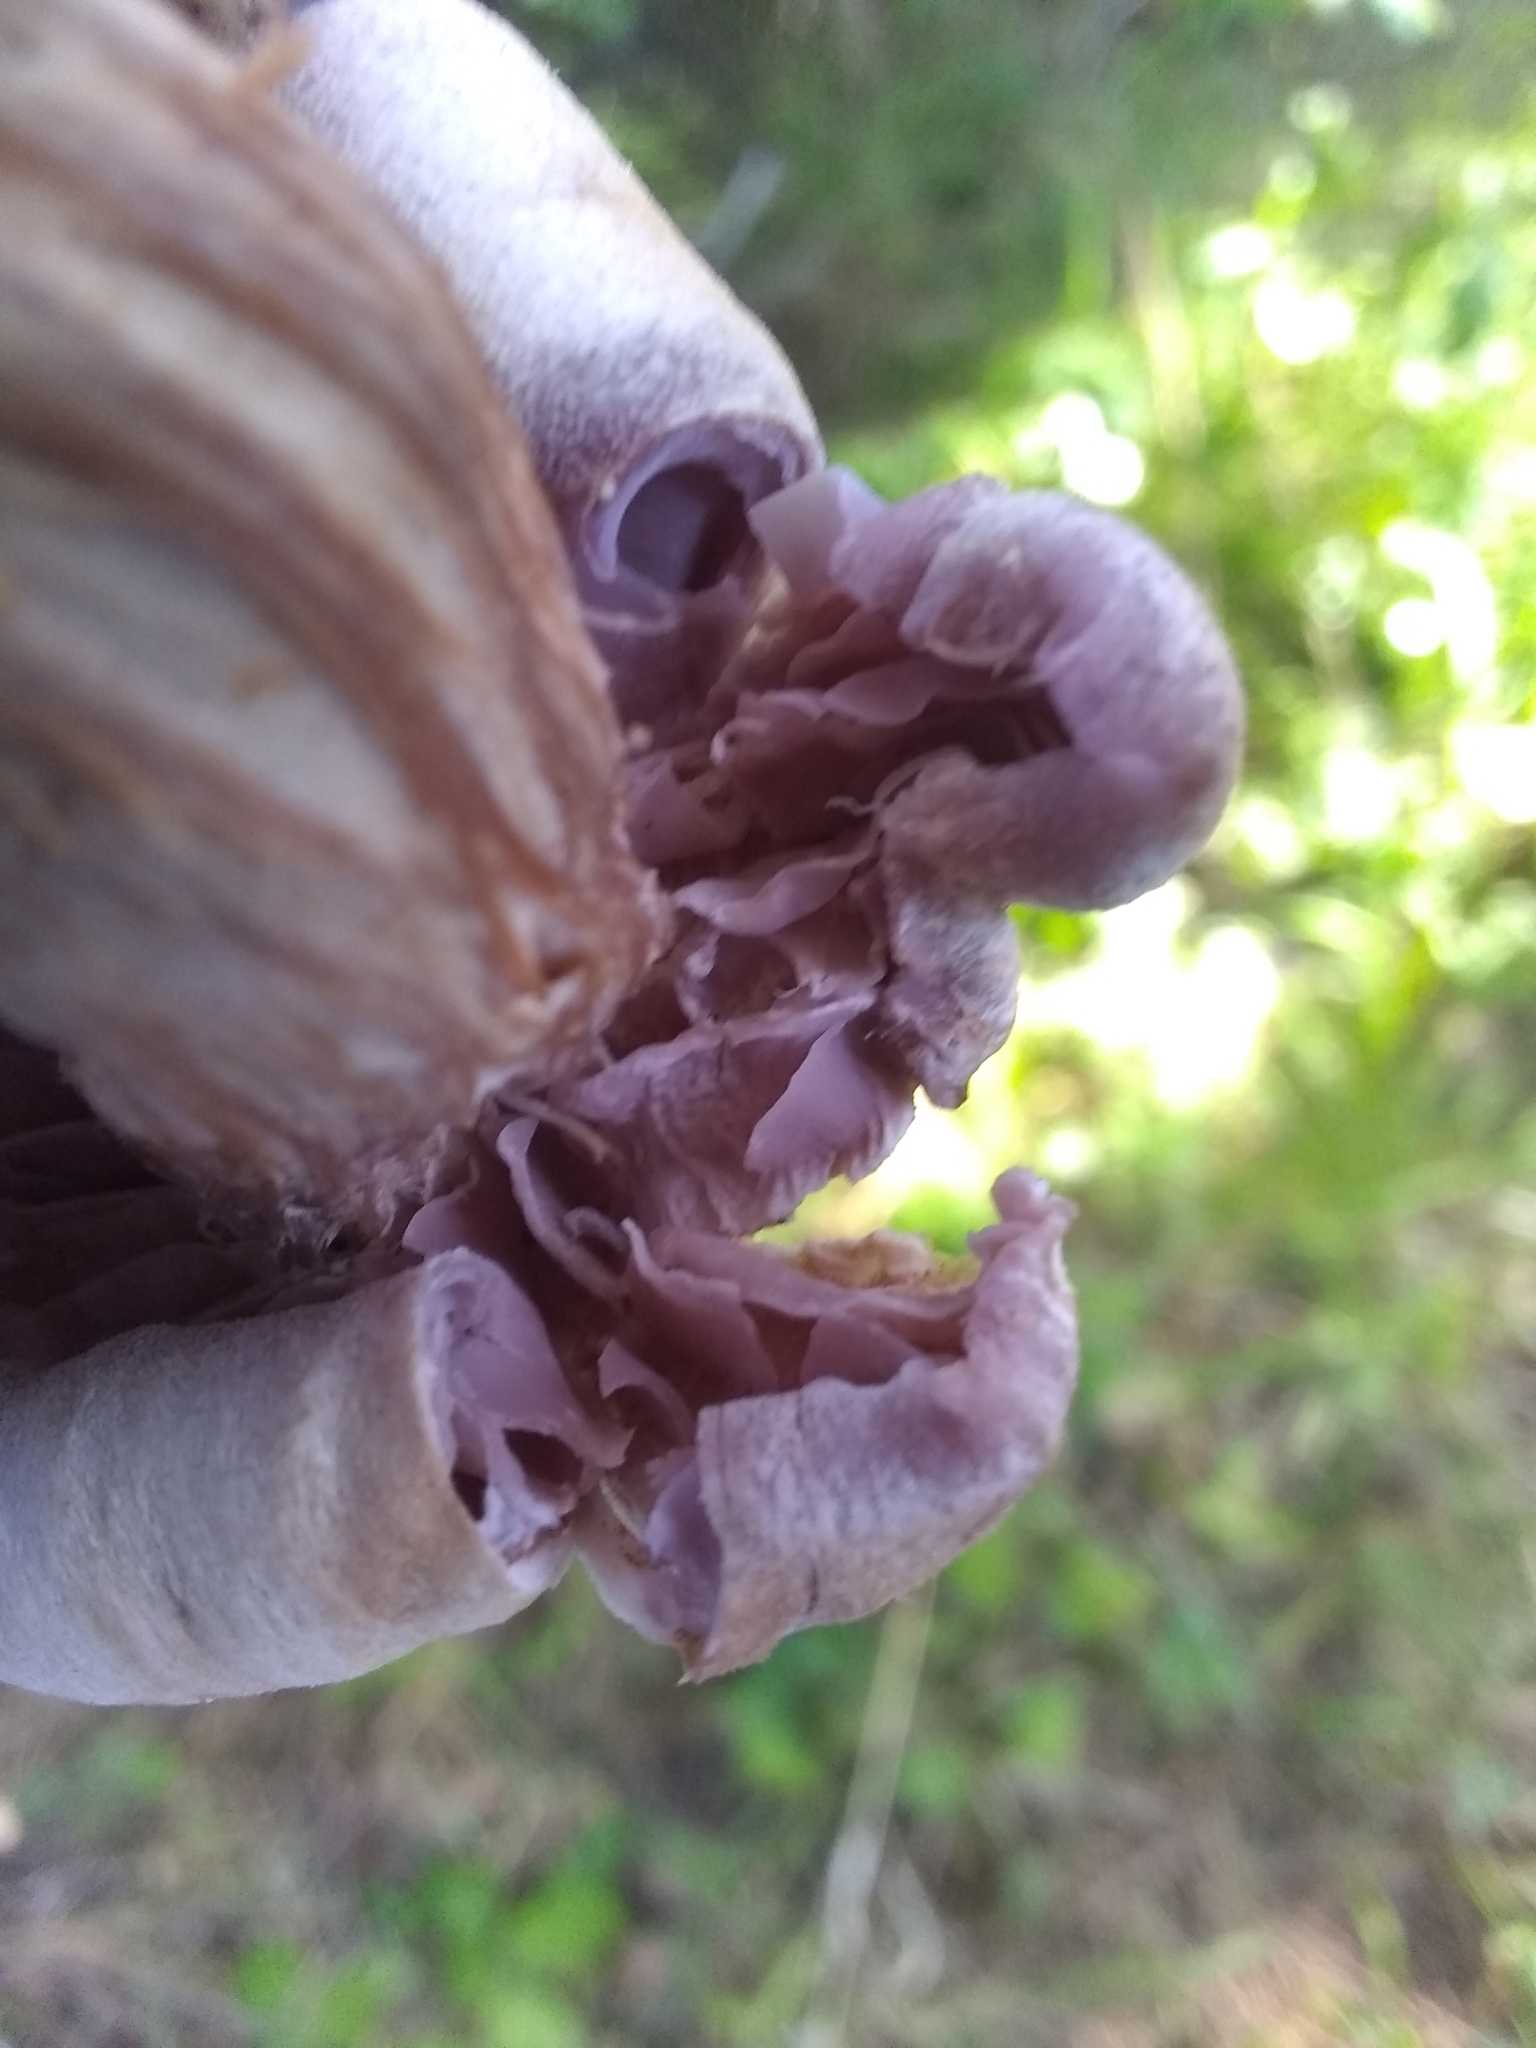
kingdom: Fungi
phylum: Basidiomycota
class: Agaricomycetes
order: Agaricales
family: Hydnangiaceae
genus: Laccaria
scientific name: Laccaria amethysteo-occidentalis
